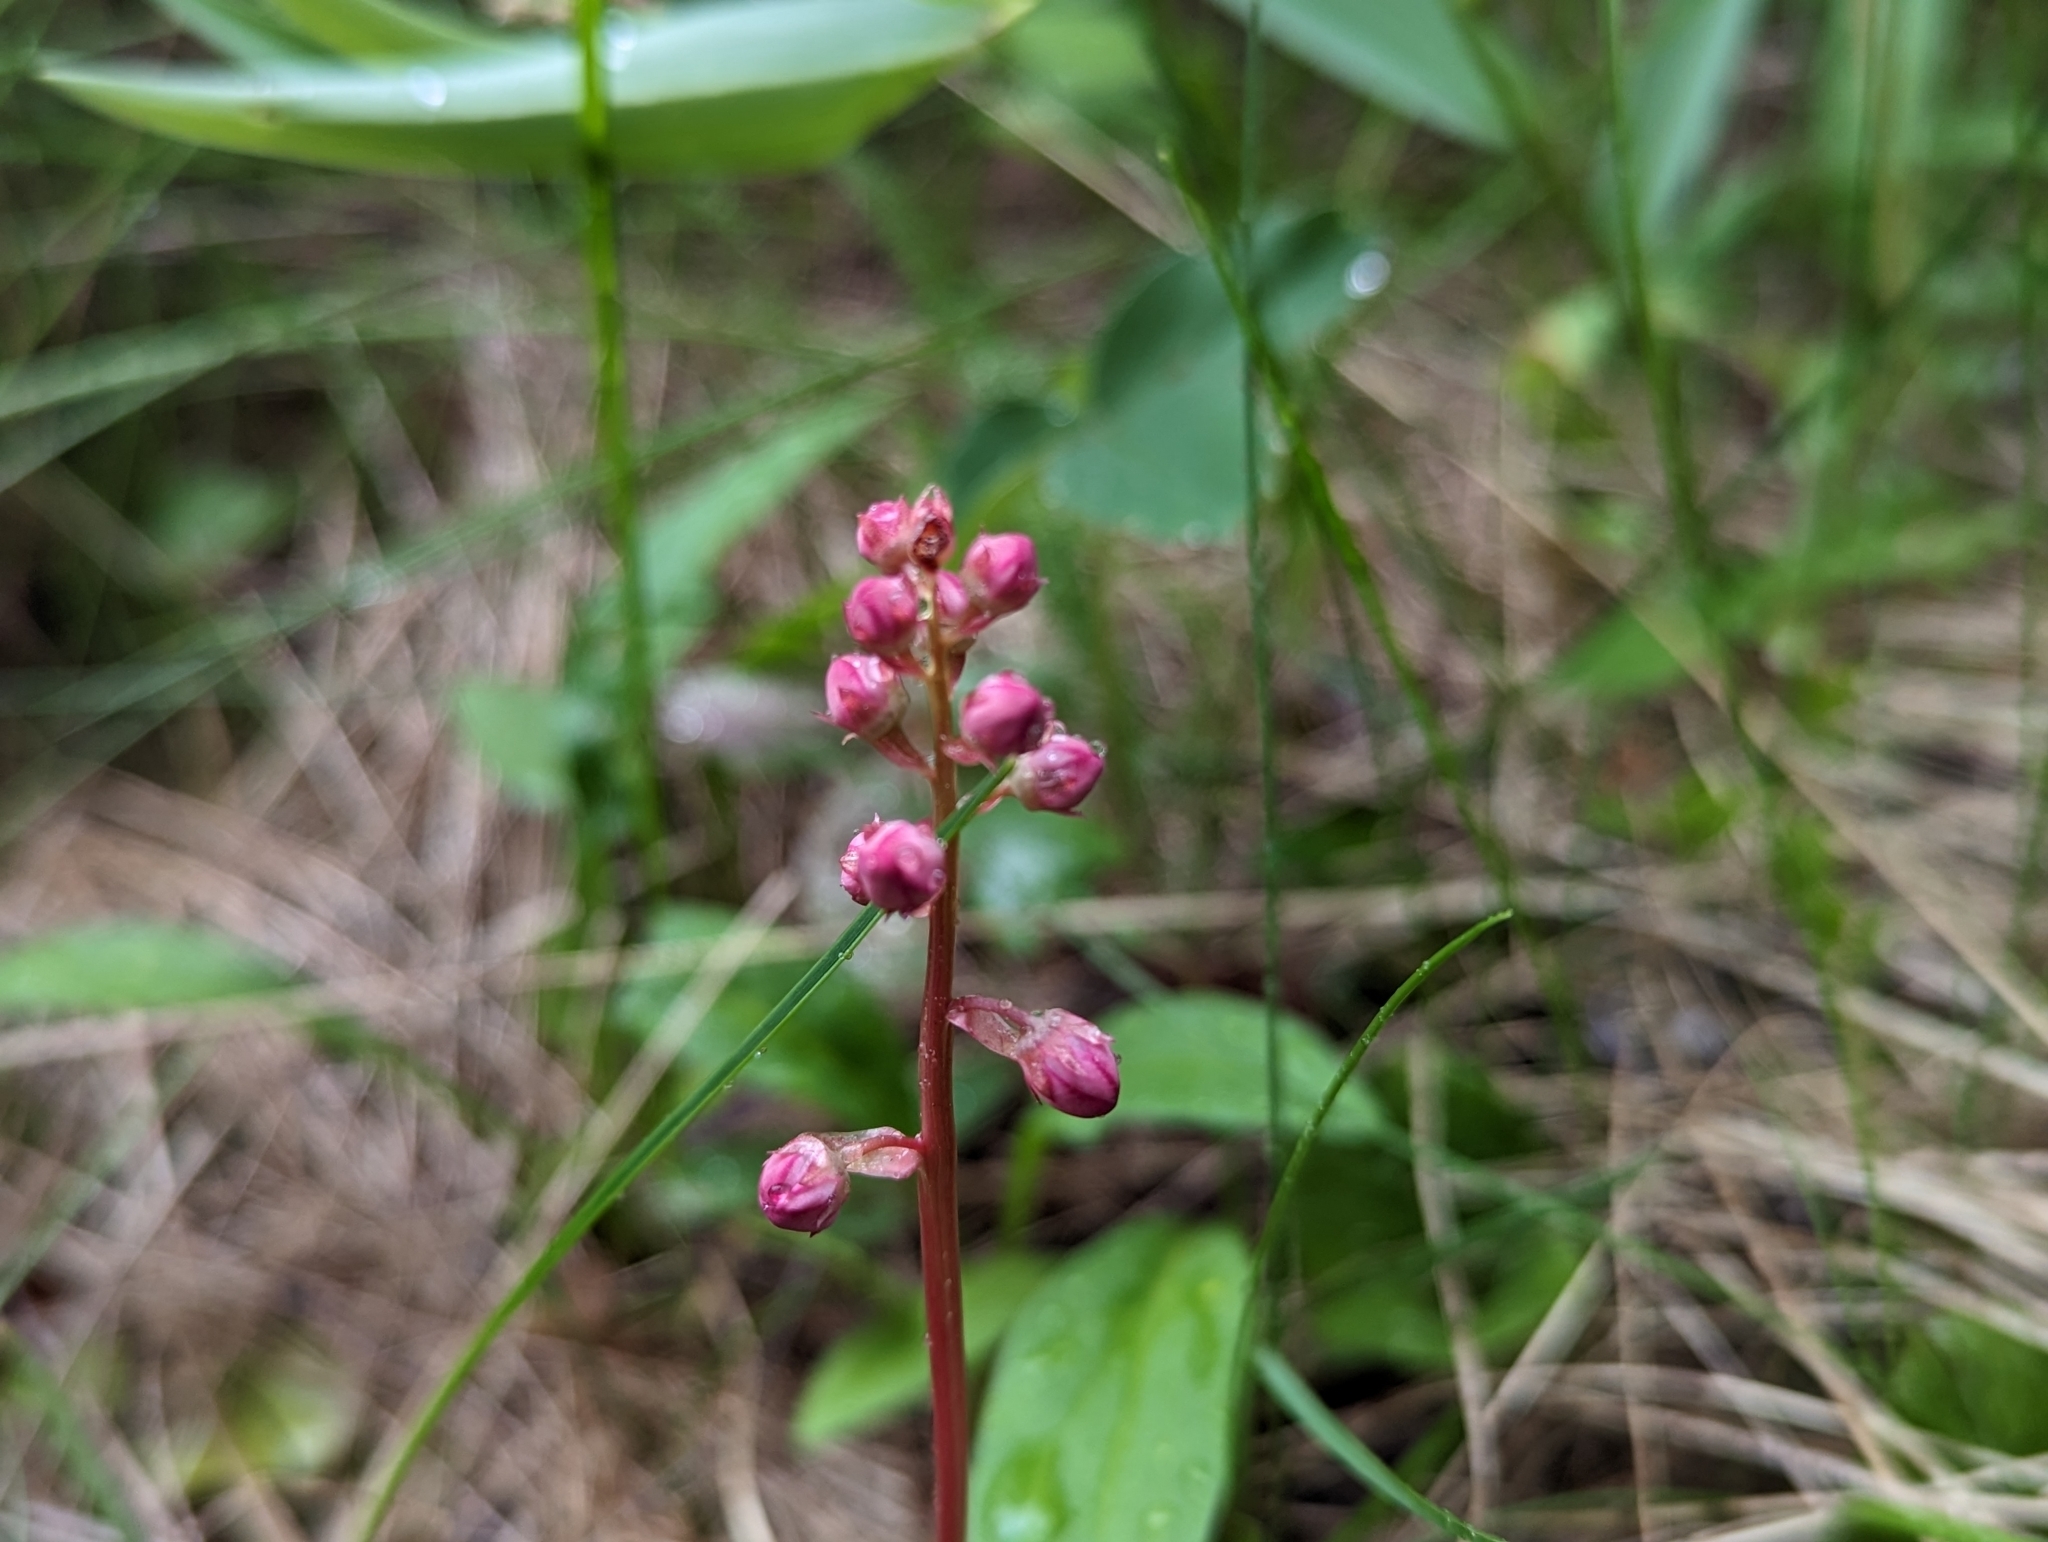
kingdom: Plantae
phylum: Tracheophyta
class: Magnoliopsida
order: Ericales
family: Ericaceae
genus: Pyrola
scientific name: Pyrola asarifolia
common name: Bog wintergreen
